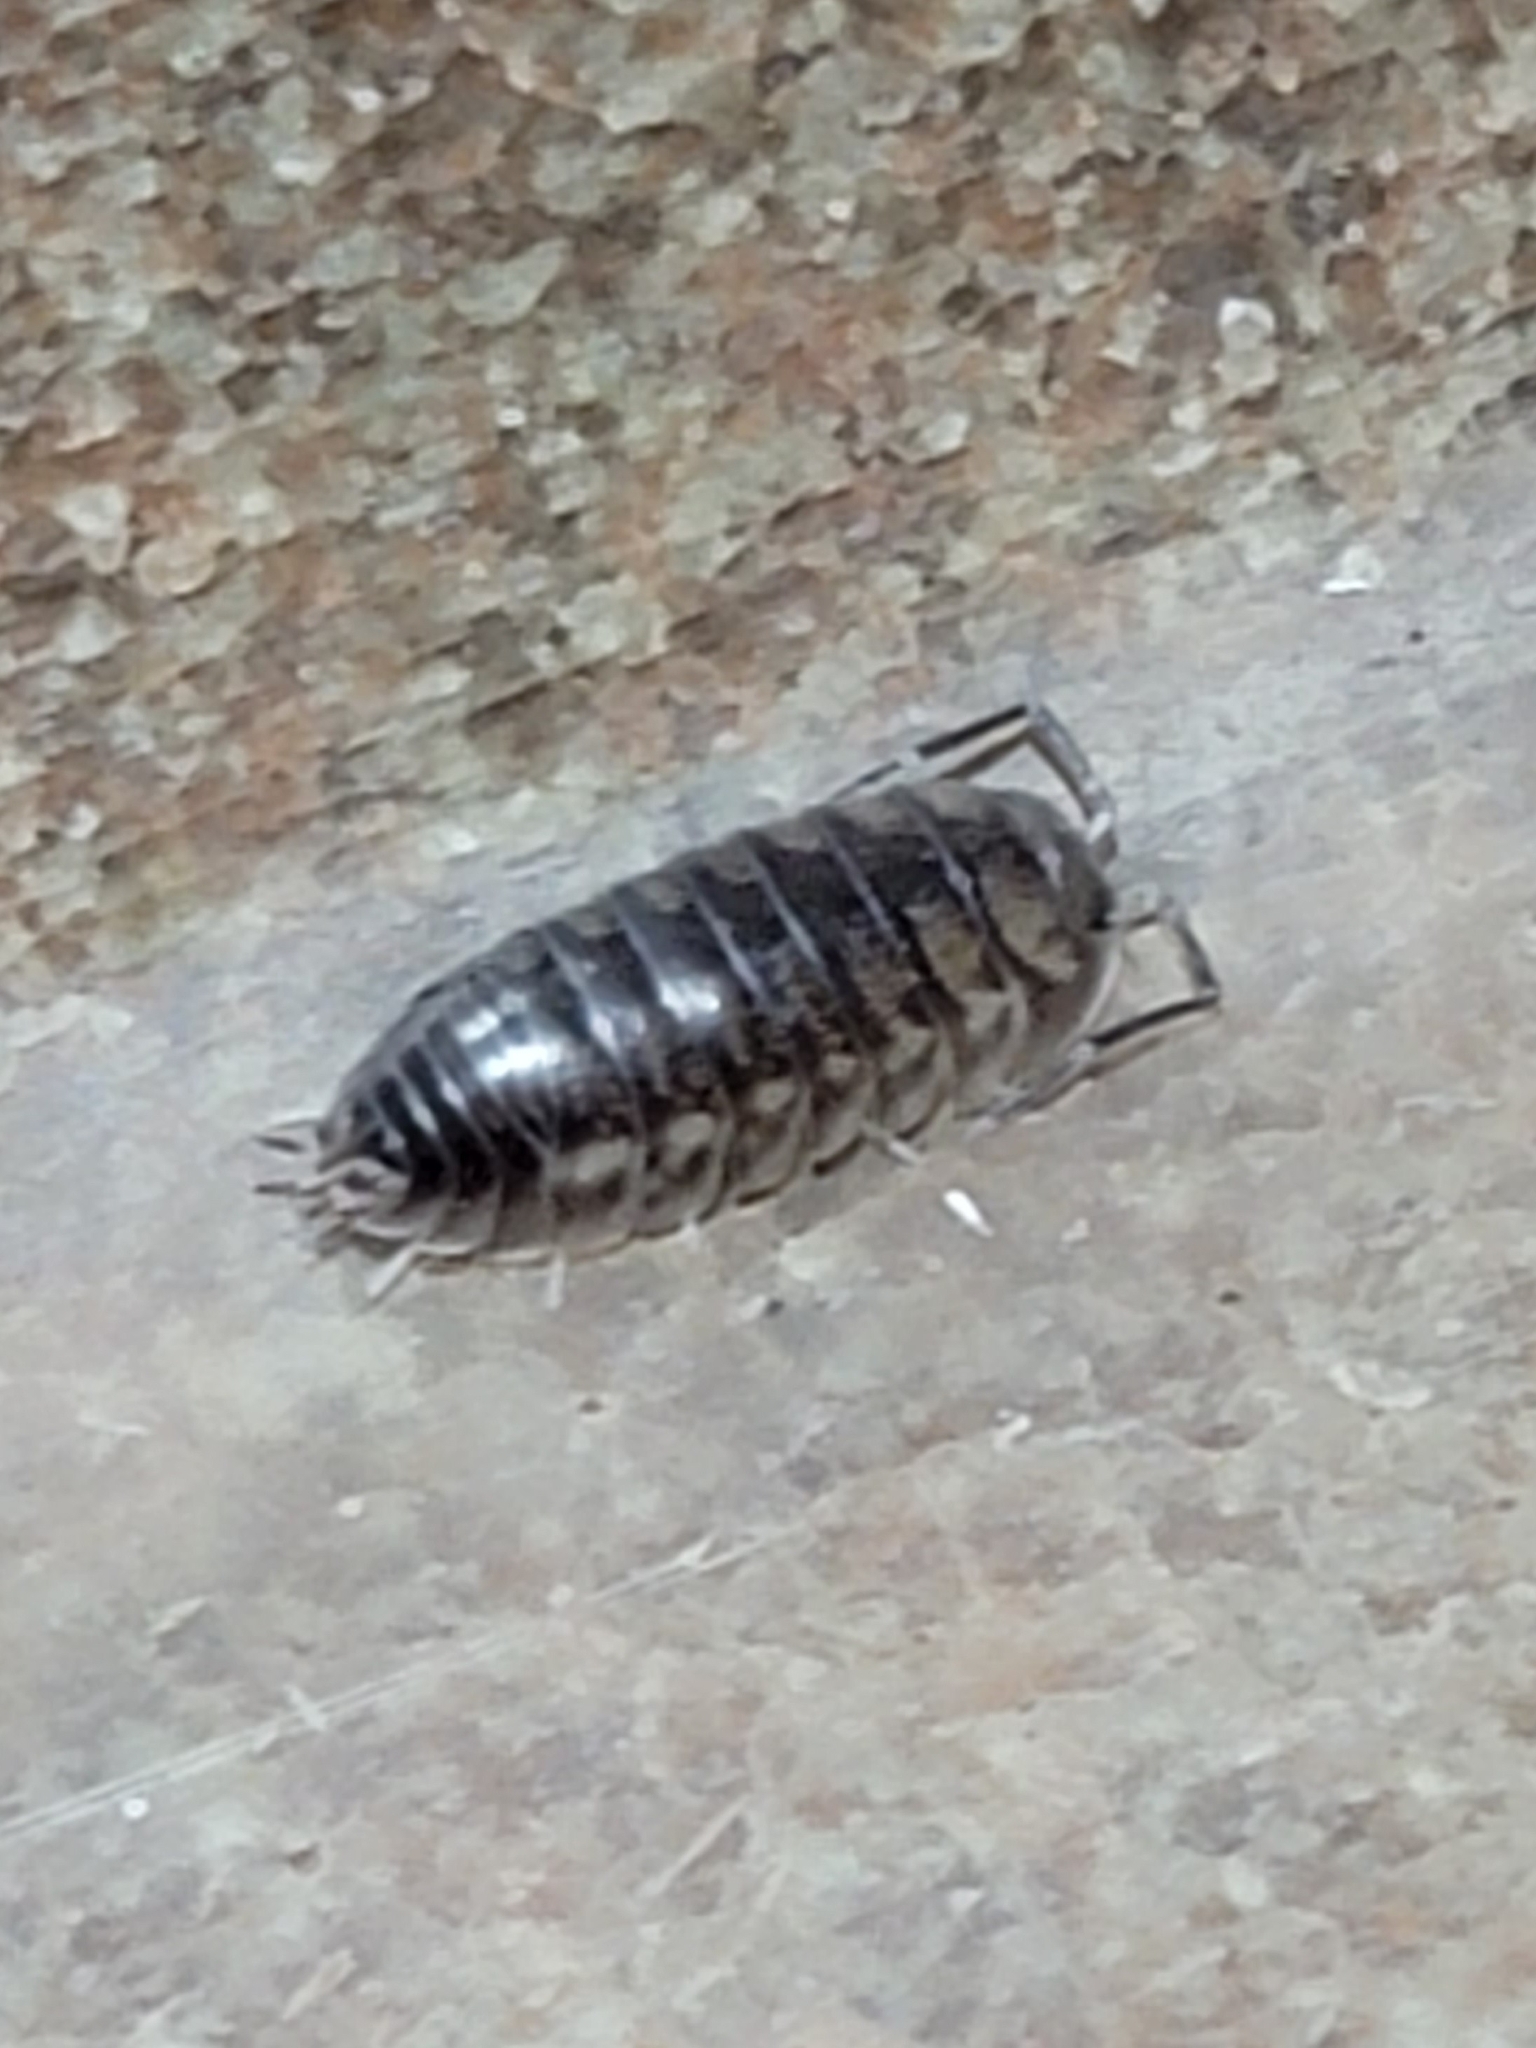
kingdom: Animalia
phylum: Arthropoda
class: Malacostraca
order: Isopoda
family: Cylisticidae
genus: Cylisticus
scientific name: Cylisticus convexus
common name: Curly woodlouse
